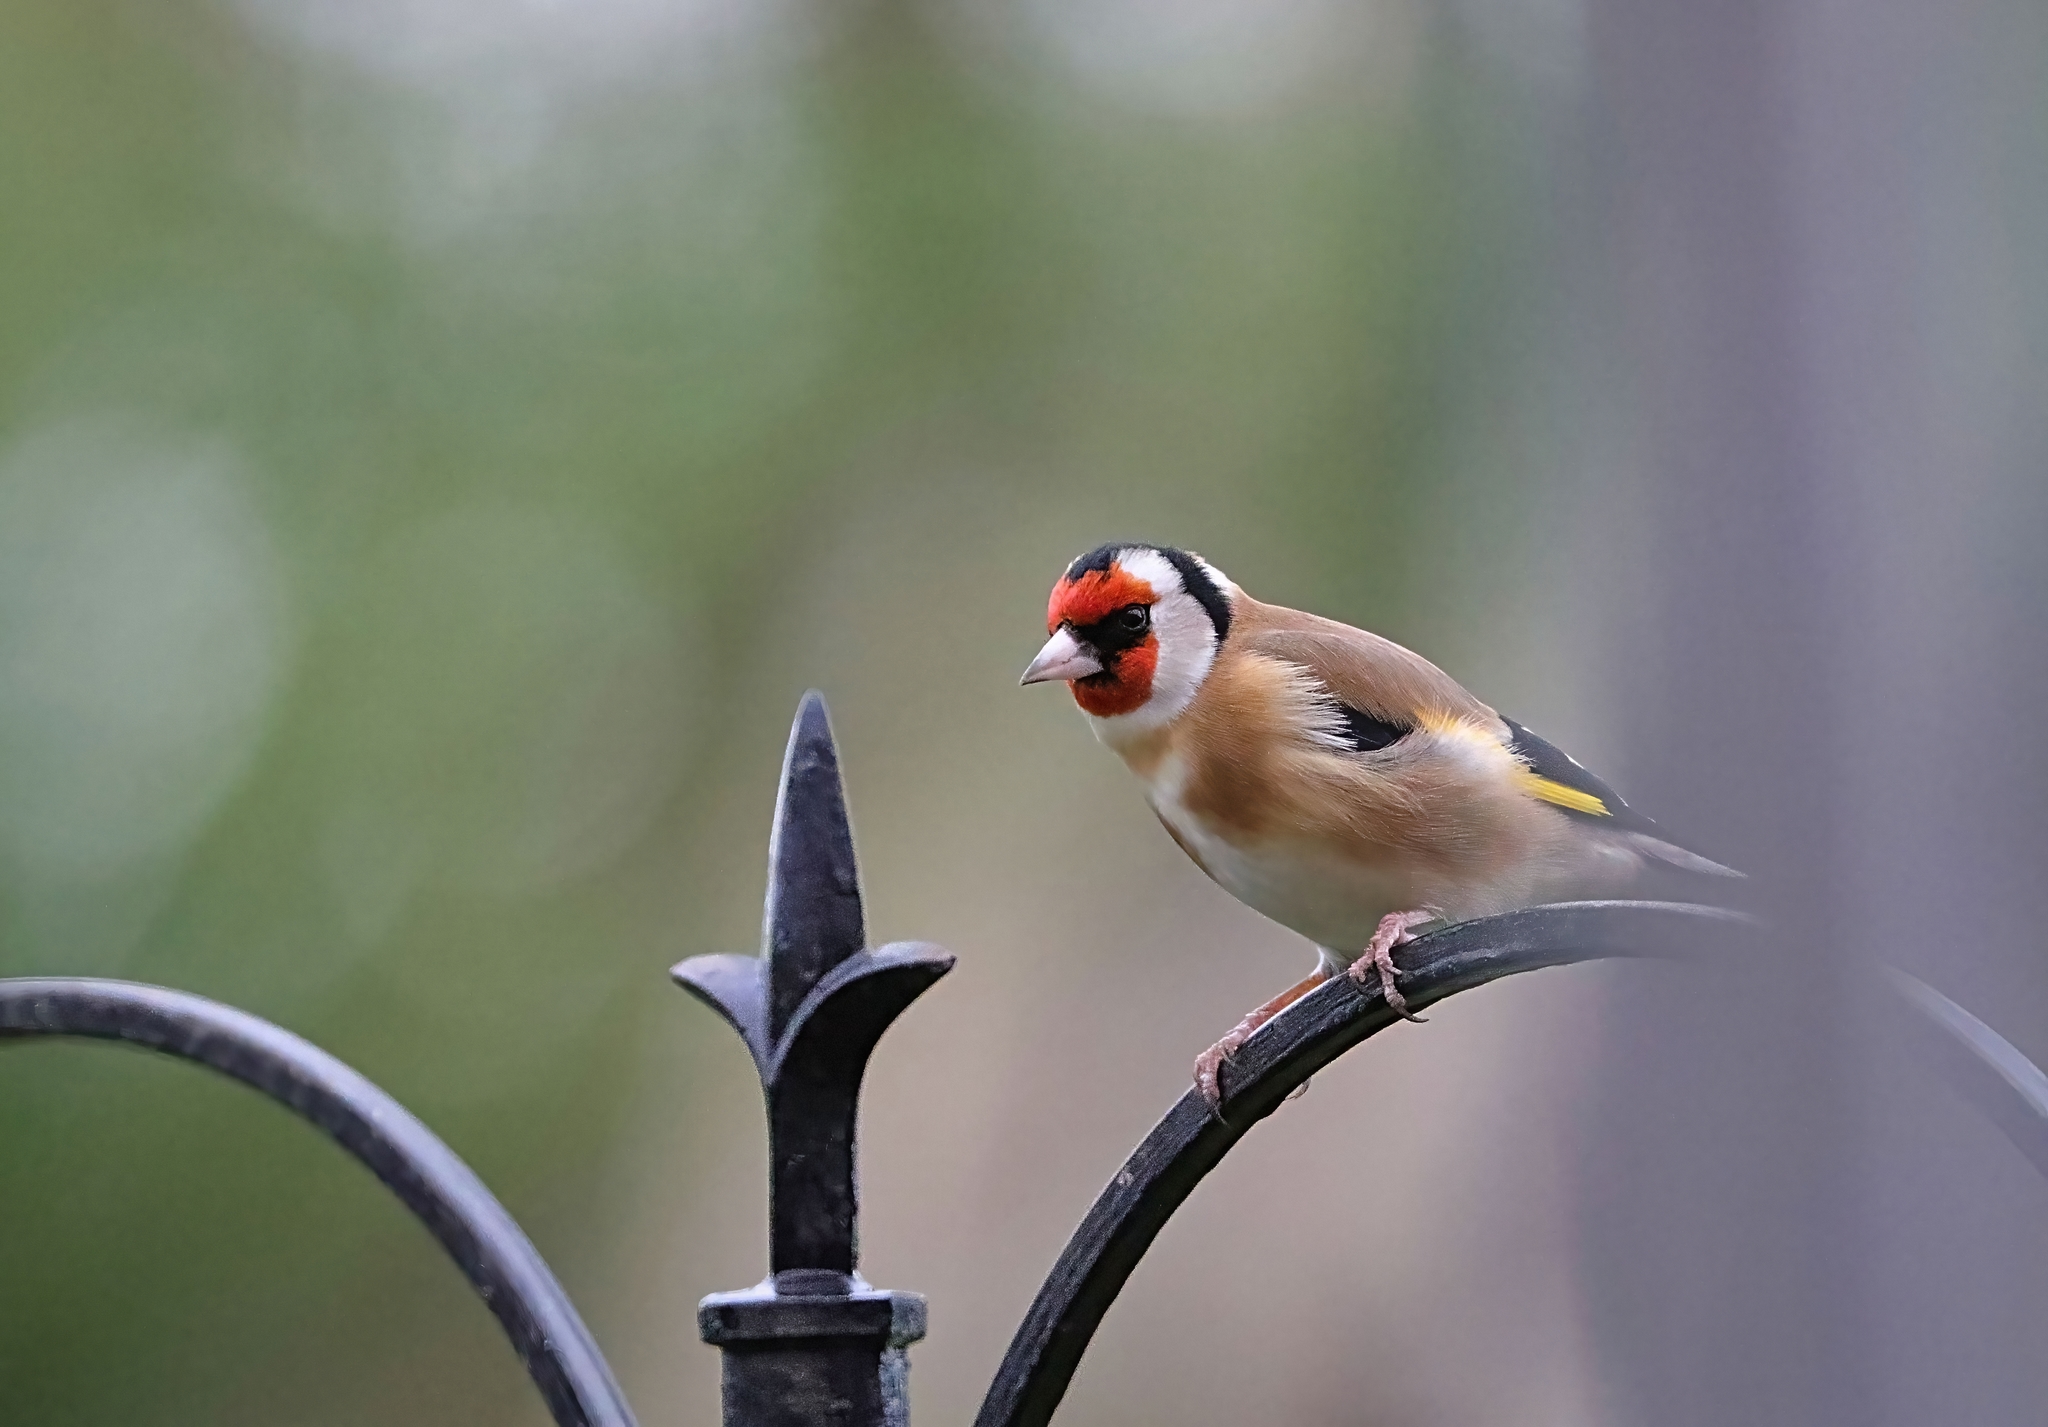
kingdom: Animalia
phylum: Chordata
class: Aves
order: Passeriformes
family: Fringillidae
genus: Carduelis
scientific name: Carduelis carduelis
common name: European goldfinch
